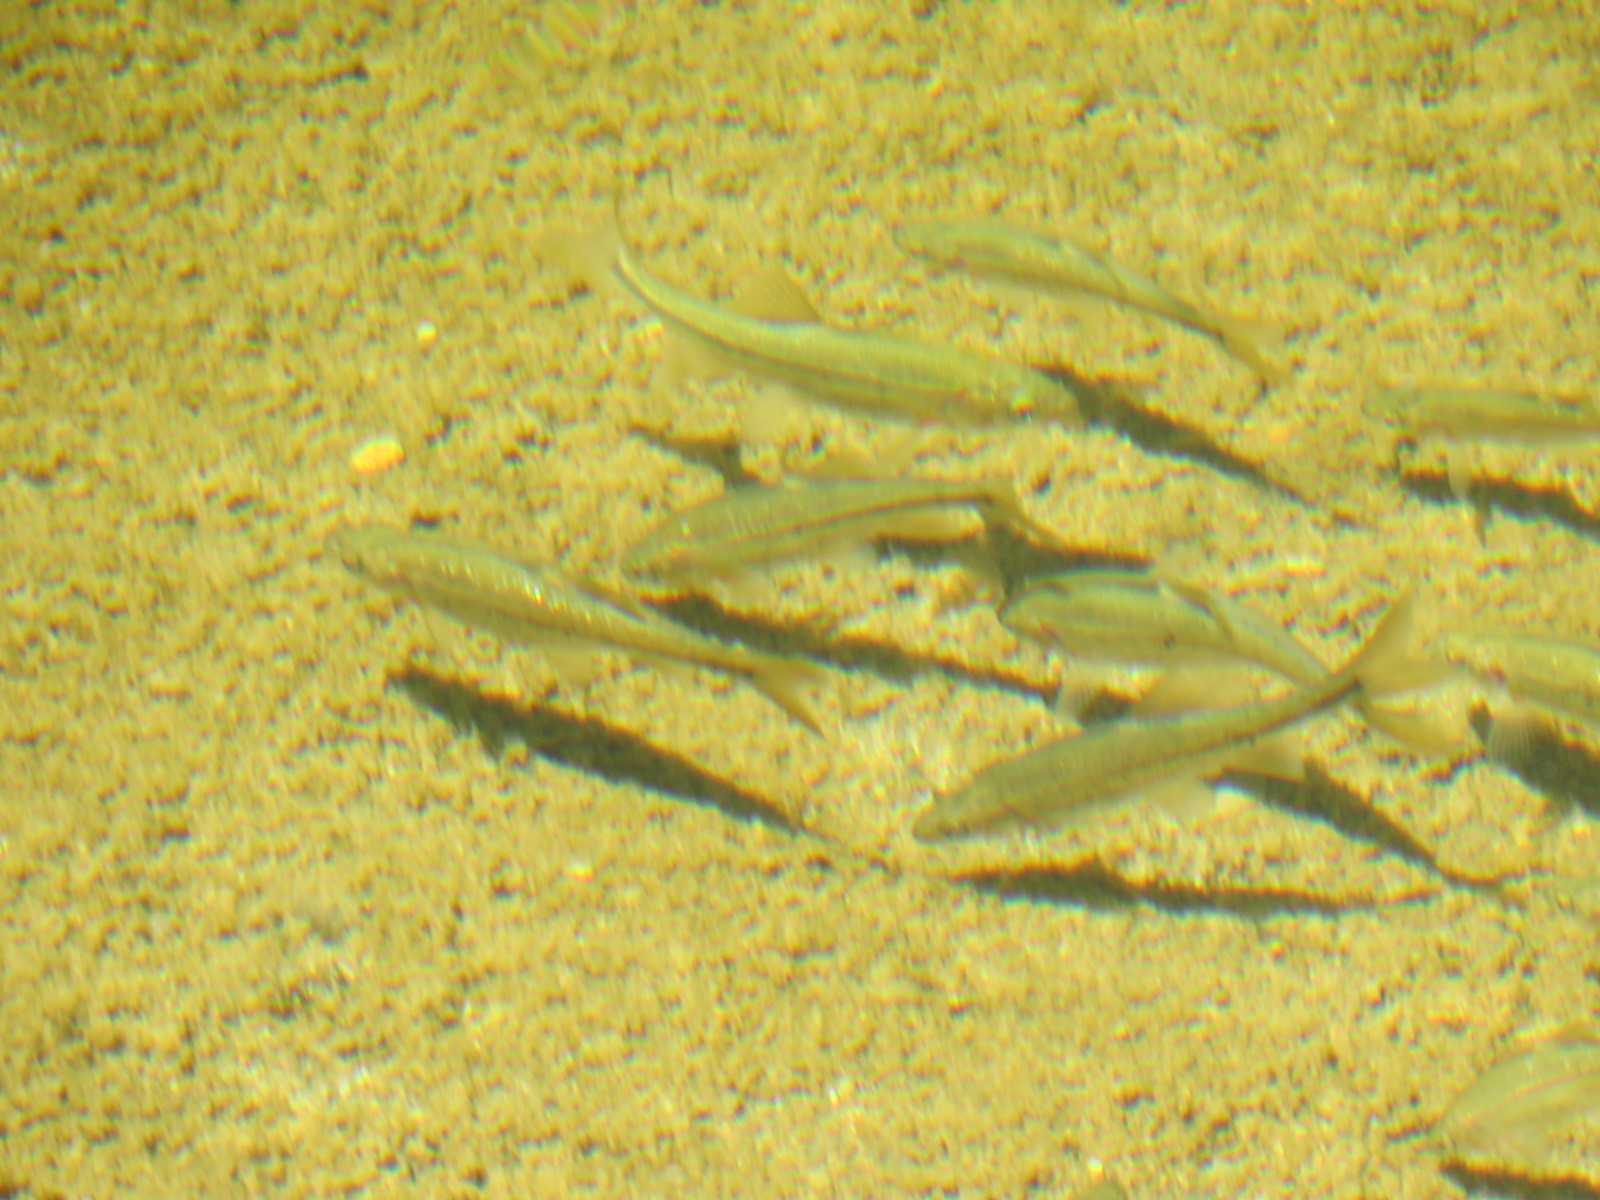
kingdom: Animalia
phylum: Chordata
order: Cypriniformes
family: Cyprinidae
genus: Hesperoleucus
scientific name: Hesperoleucus symmetricus
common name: California roach
